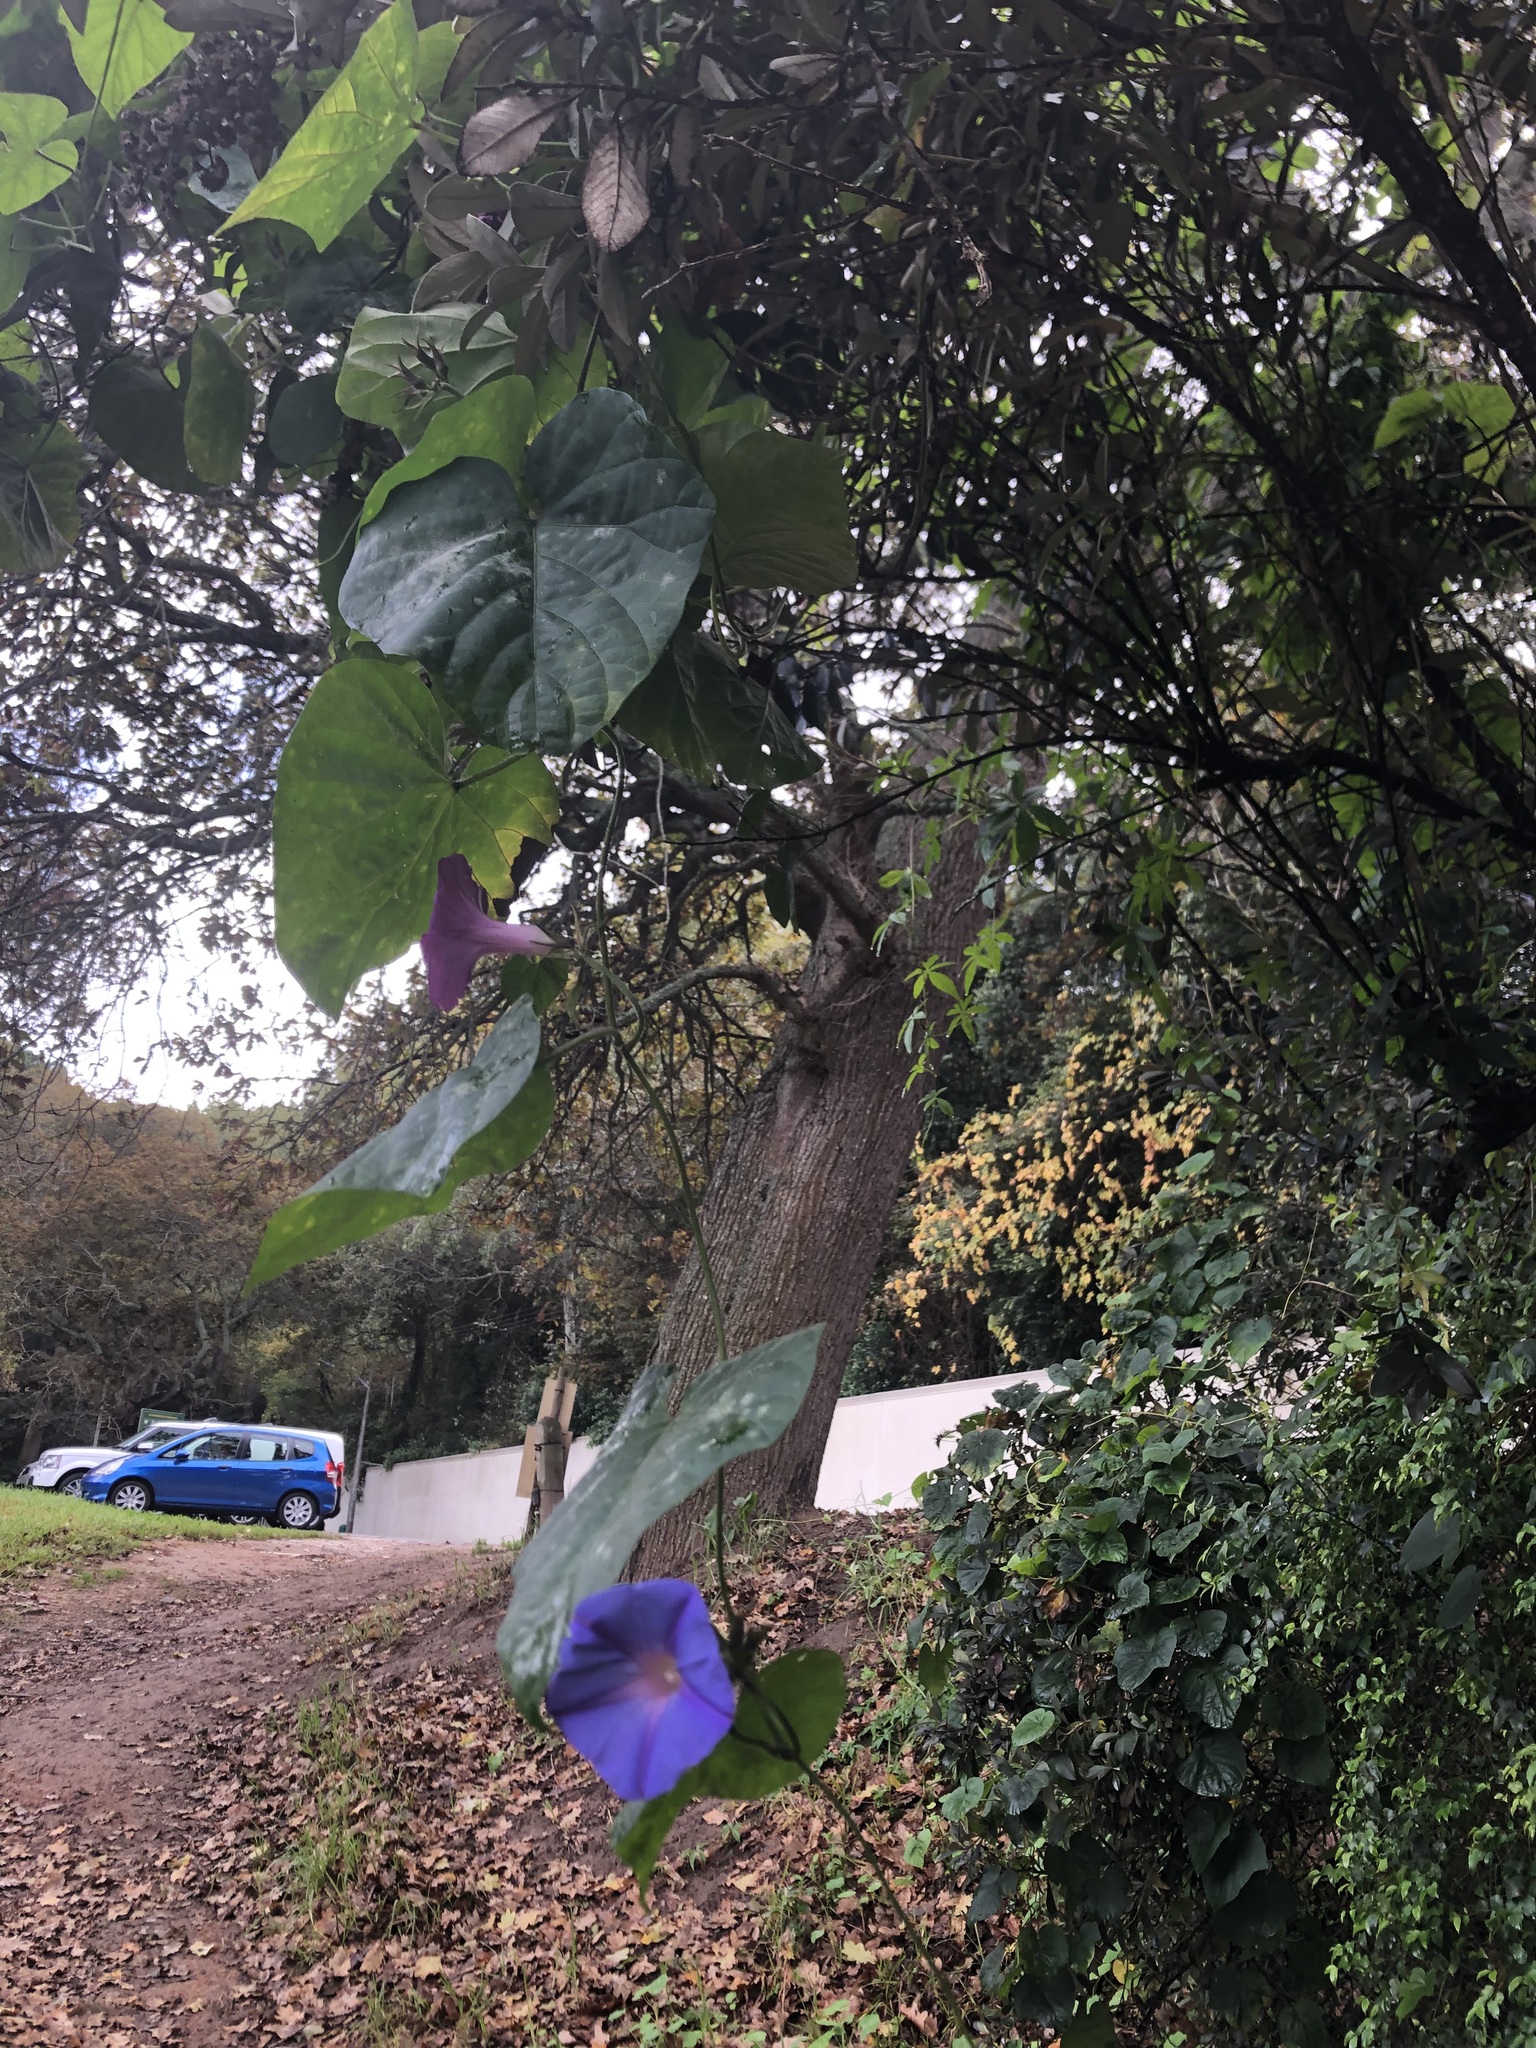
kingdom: Plantae
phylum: Tracheophyta
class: Magnoliopsida
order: Solanales
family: Convolvulaceae
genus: Ipomoea
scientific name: Ipomoea indica
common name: Blue dawnflower
